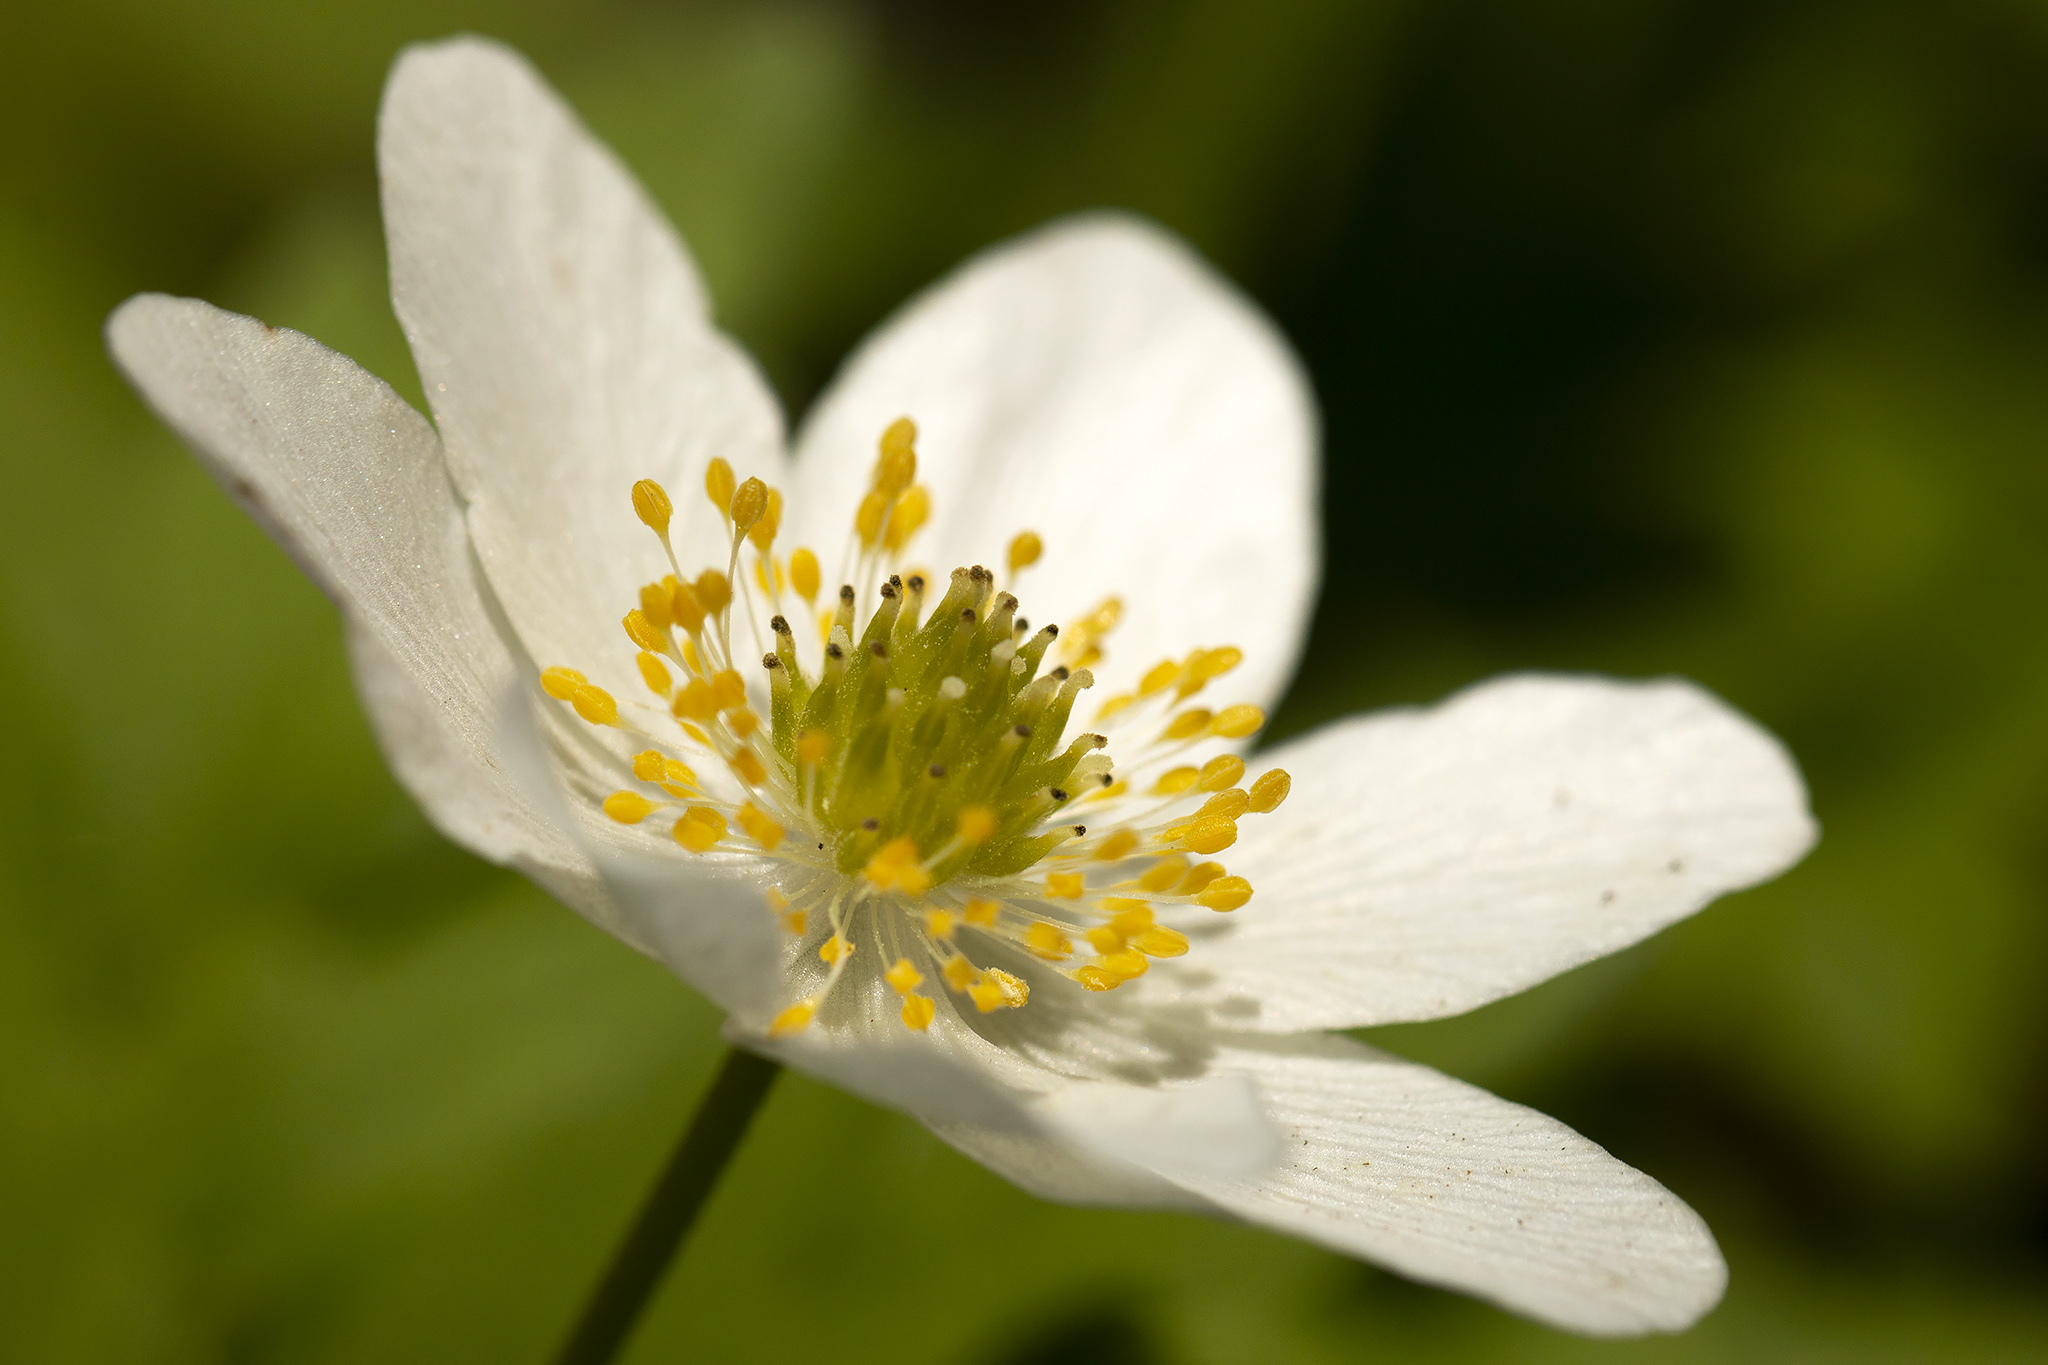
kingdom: Plantae
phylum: Tracheophyta
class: Magnoliopsida
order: Ranunculales
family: Ranunculaceae
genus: Anemone
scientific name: Anemone nemorosa
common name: Wood anemone
